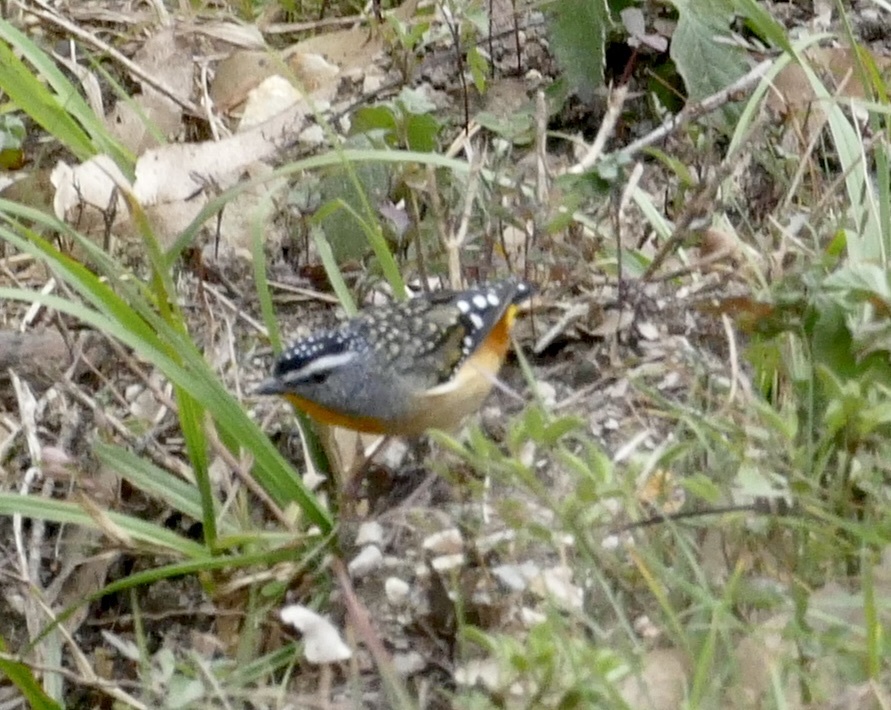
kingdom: Animalia
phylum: Chordata
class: Aves
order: Passeriformes
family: Pardalotidae
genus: Pardalotus
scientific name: Pardalotus punctatus
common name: Spotted pardalote
